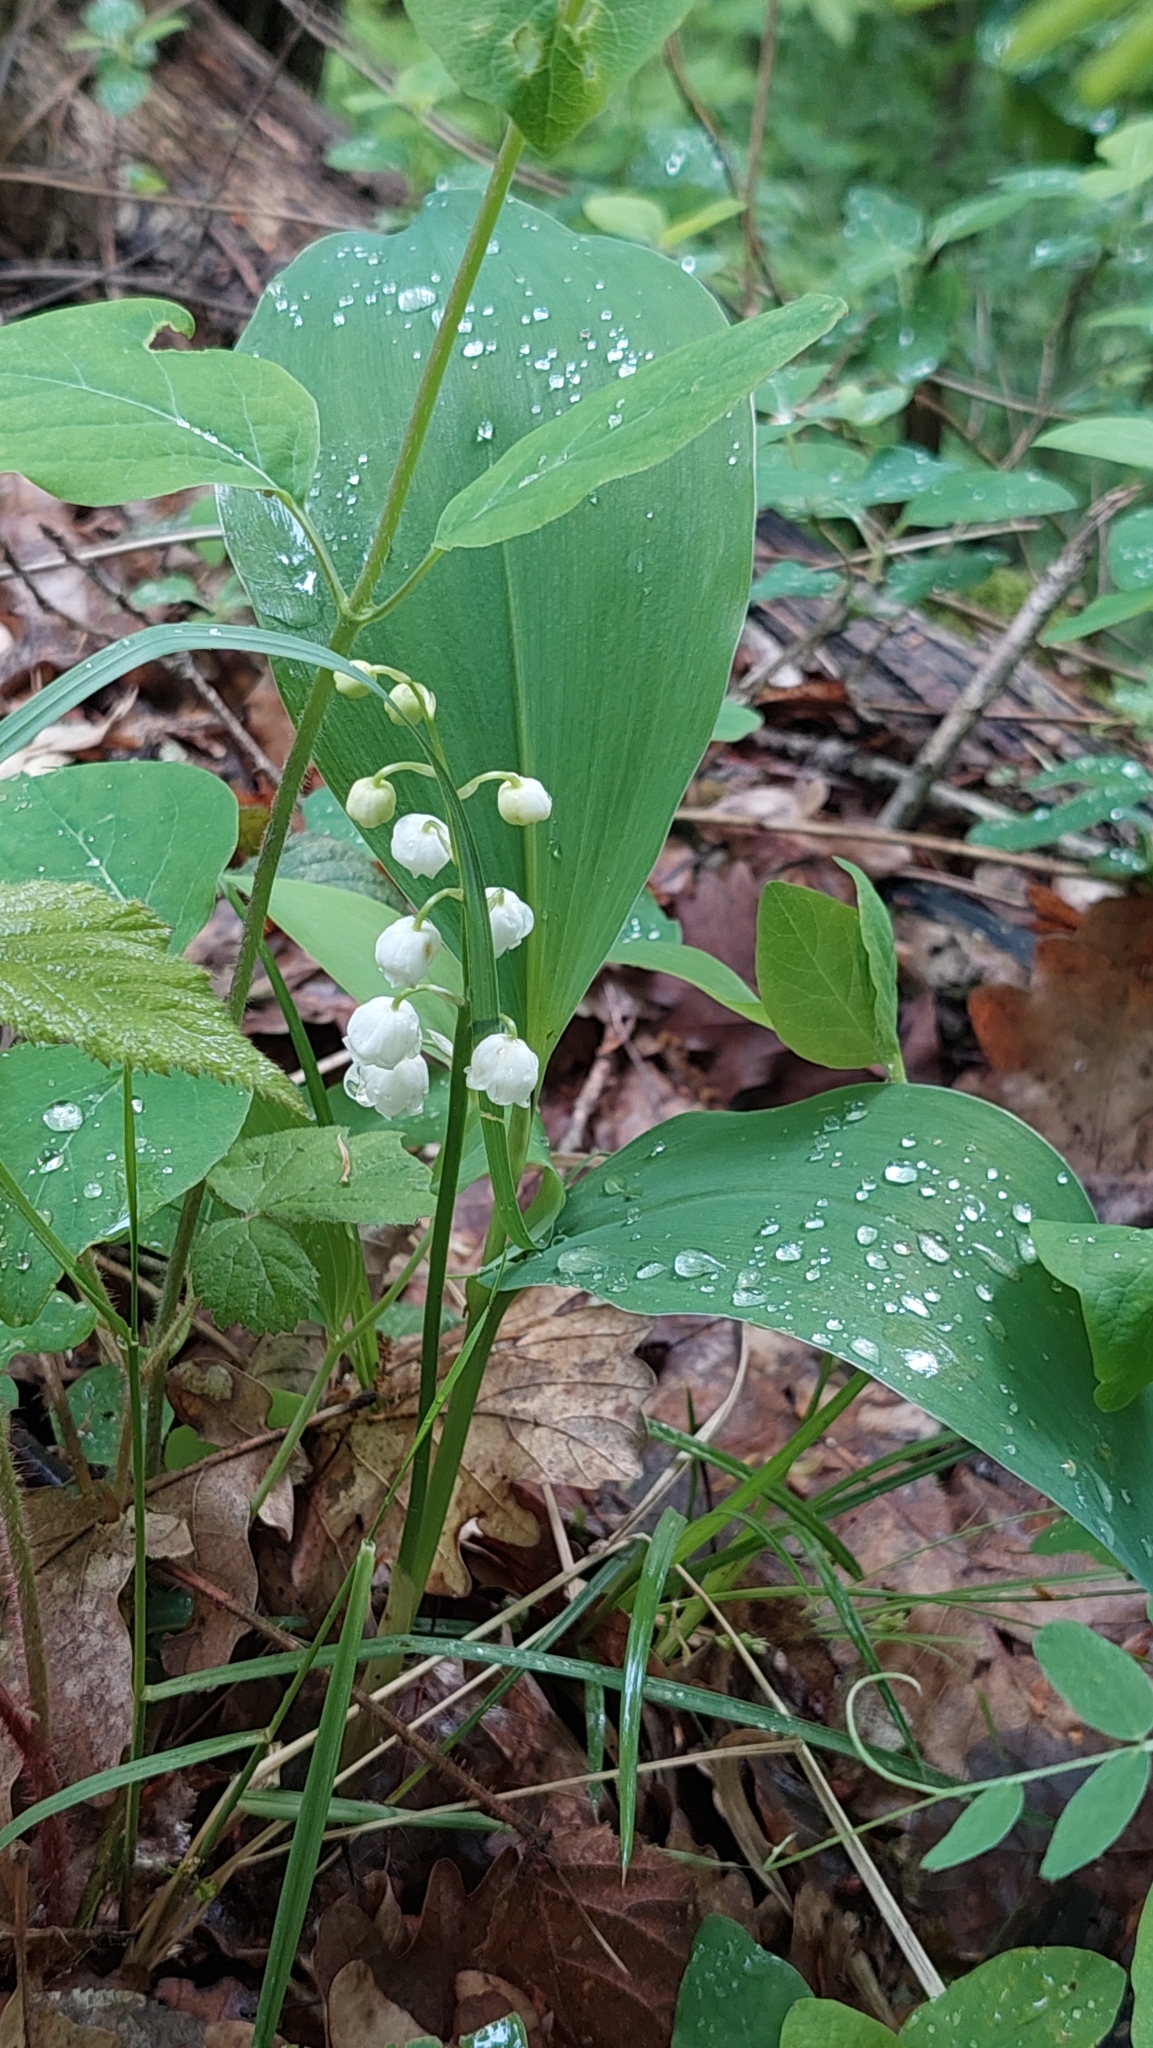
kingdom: Plantae
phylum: Tracheophyta
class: Liliopsida
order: Asparagales
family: Asparagaceae
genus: Convallaria
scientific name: Convallaria majalis
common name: Lily-of-the-valley
